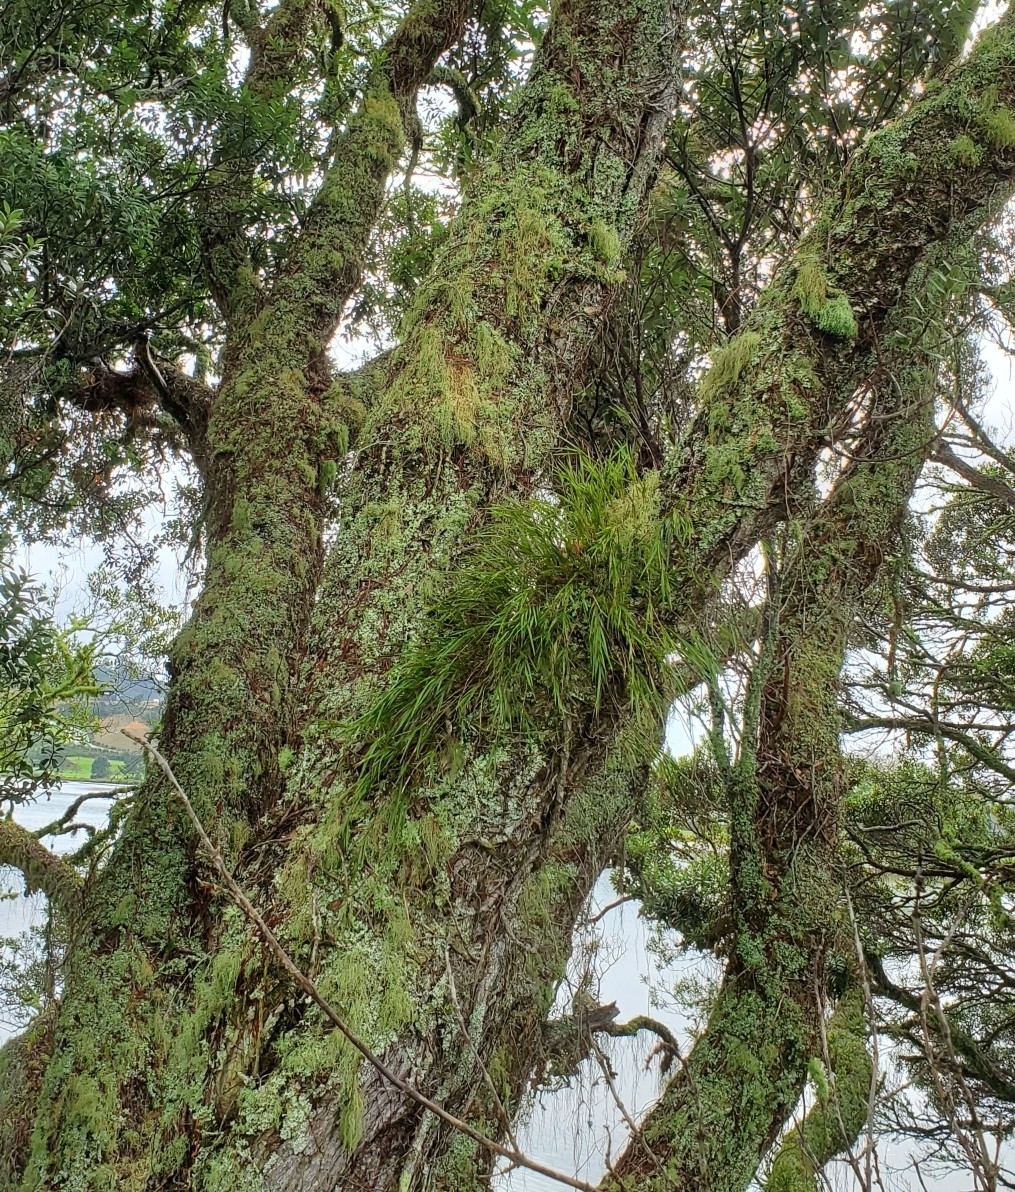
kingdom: Plantae
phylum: Tracheophyta
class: Liliopsida
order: Asparagales
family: Orchidaceae
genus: Earina
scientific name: Earina mucronata
